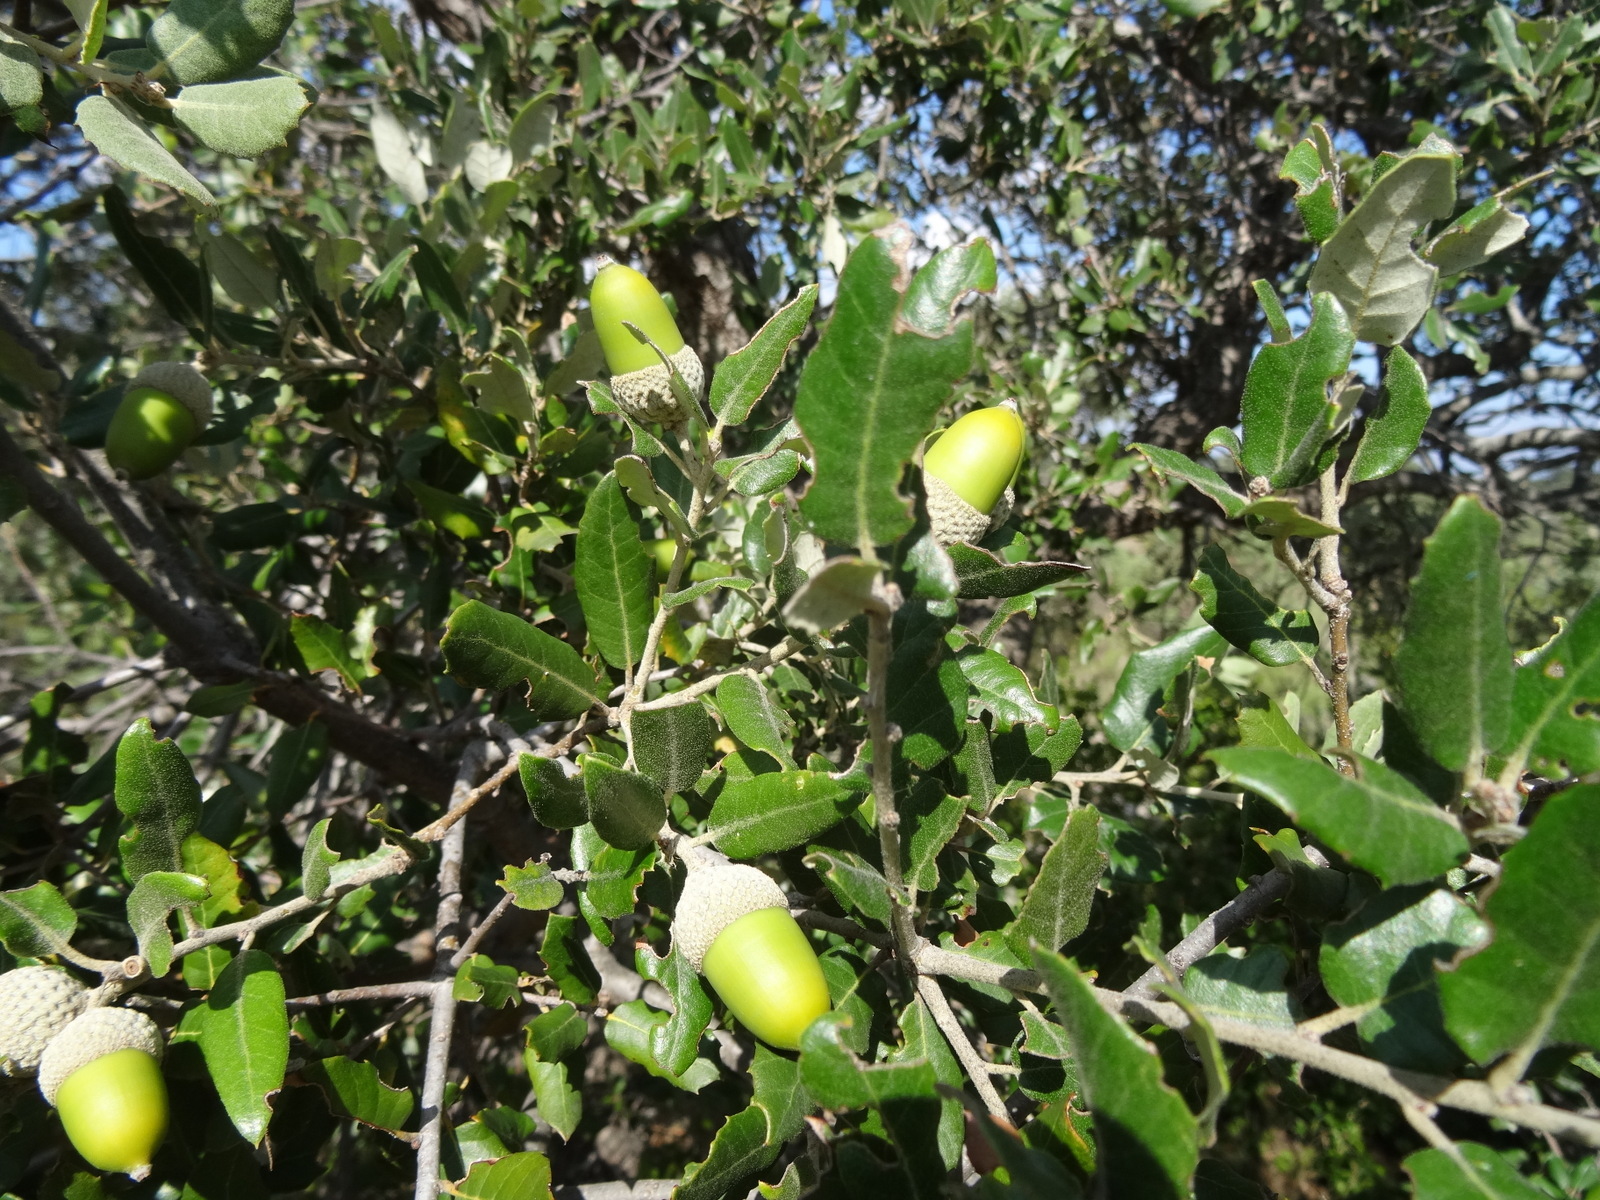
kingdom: Plantae
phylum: Tracheophyta
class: Magnoliopsida
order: Fagales
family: Fagaceae
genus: Quercus
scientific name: Quercus ilex
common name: Evergreen oak
